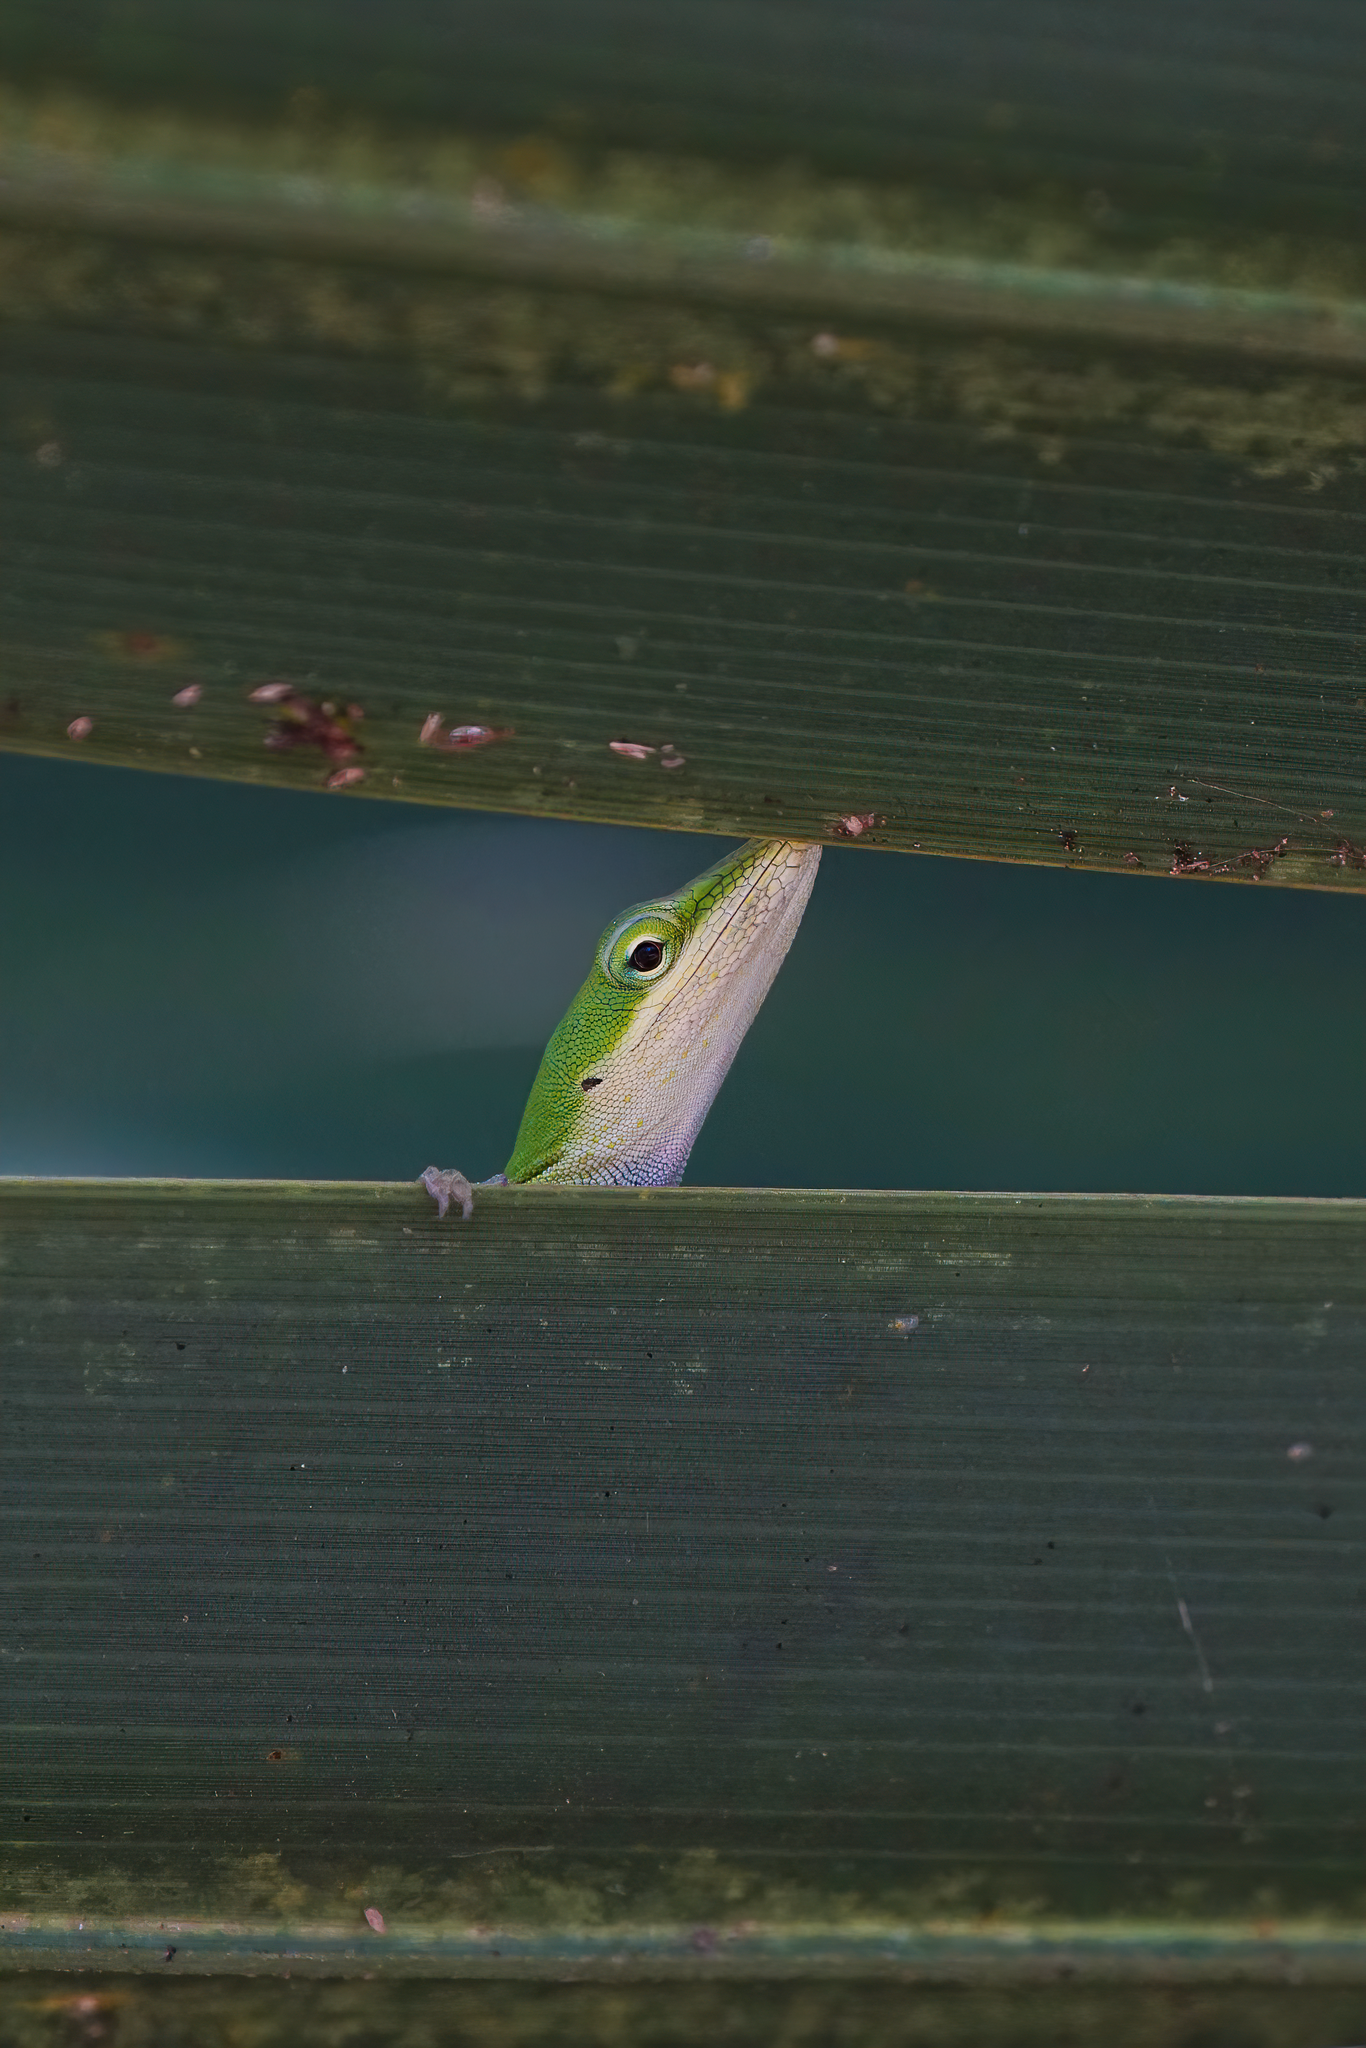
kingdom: Animalia
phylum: Chordata
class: Squamata
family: Dactyloidae
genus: Anolis
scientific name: Anolis carolinensis
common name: Green anole
